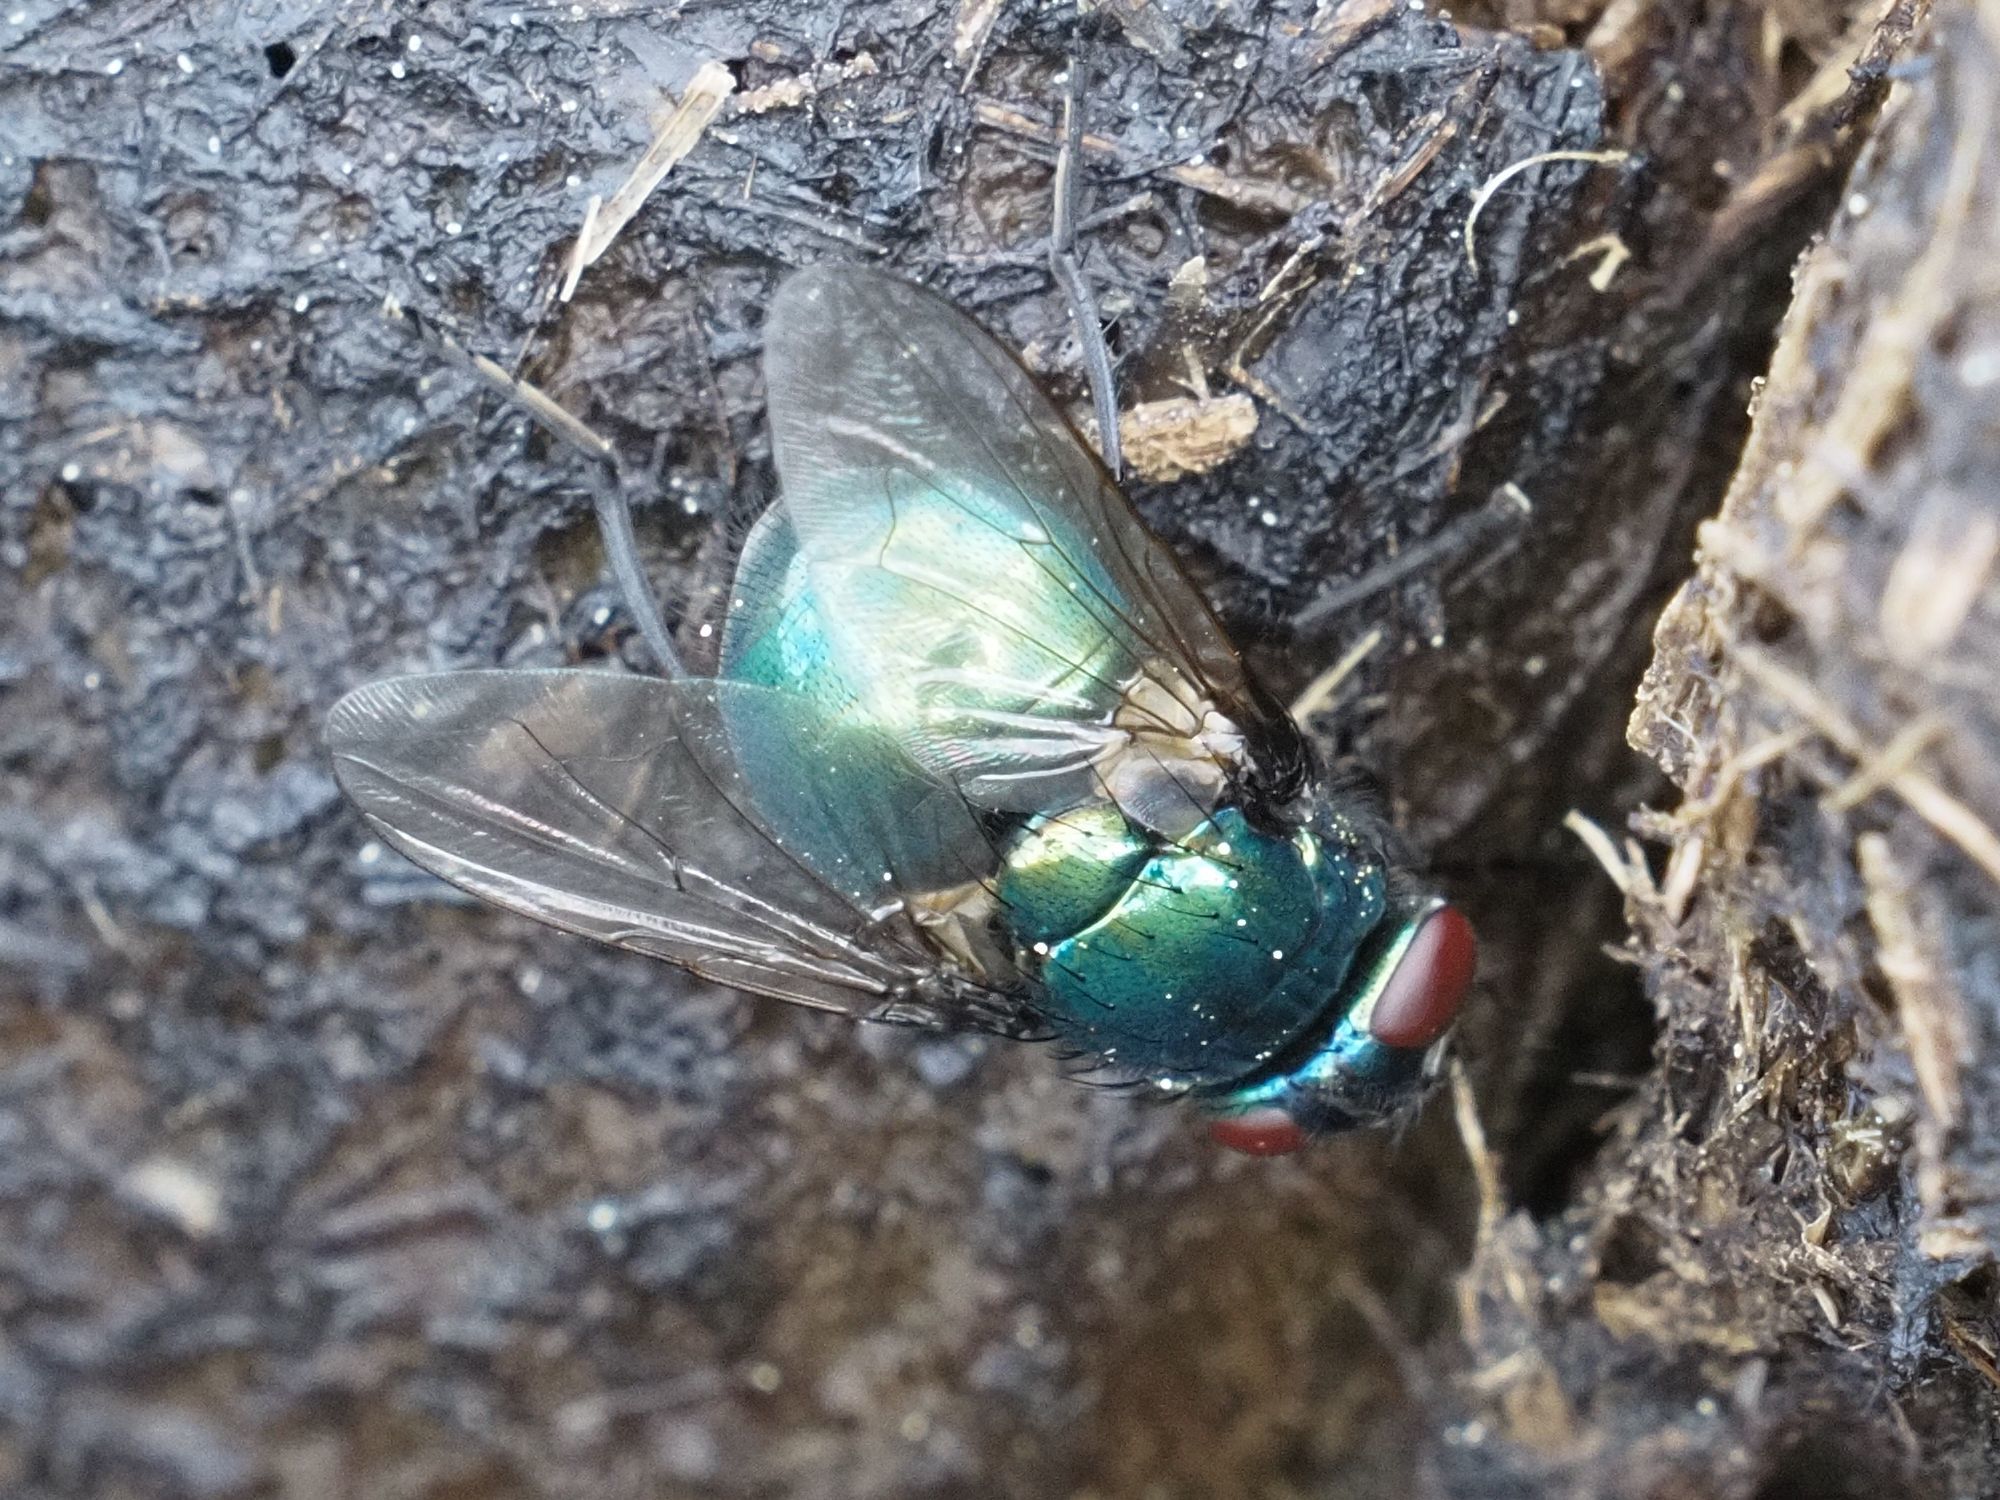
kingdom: Animalia
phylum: Arthropoda
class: Insecta
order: Diptera
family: Muscidae
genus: Neomyia
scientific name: Neomyia viridescens
